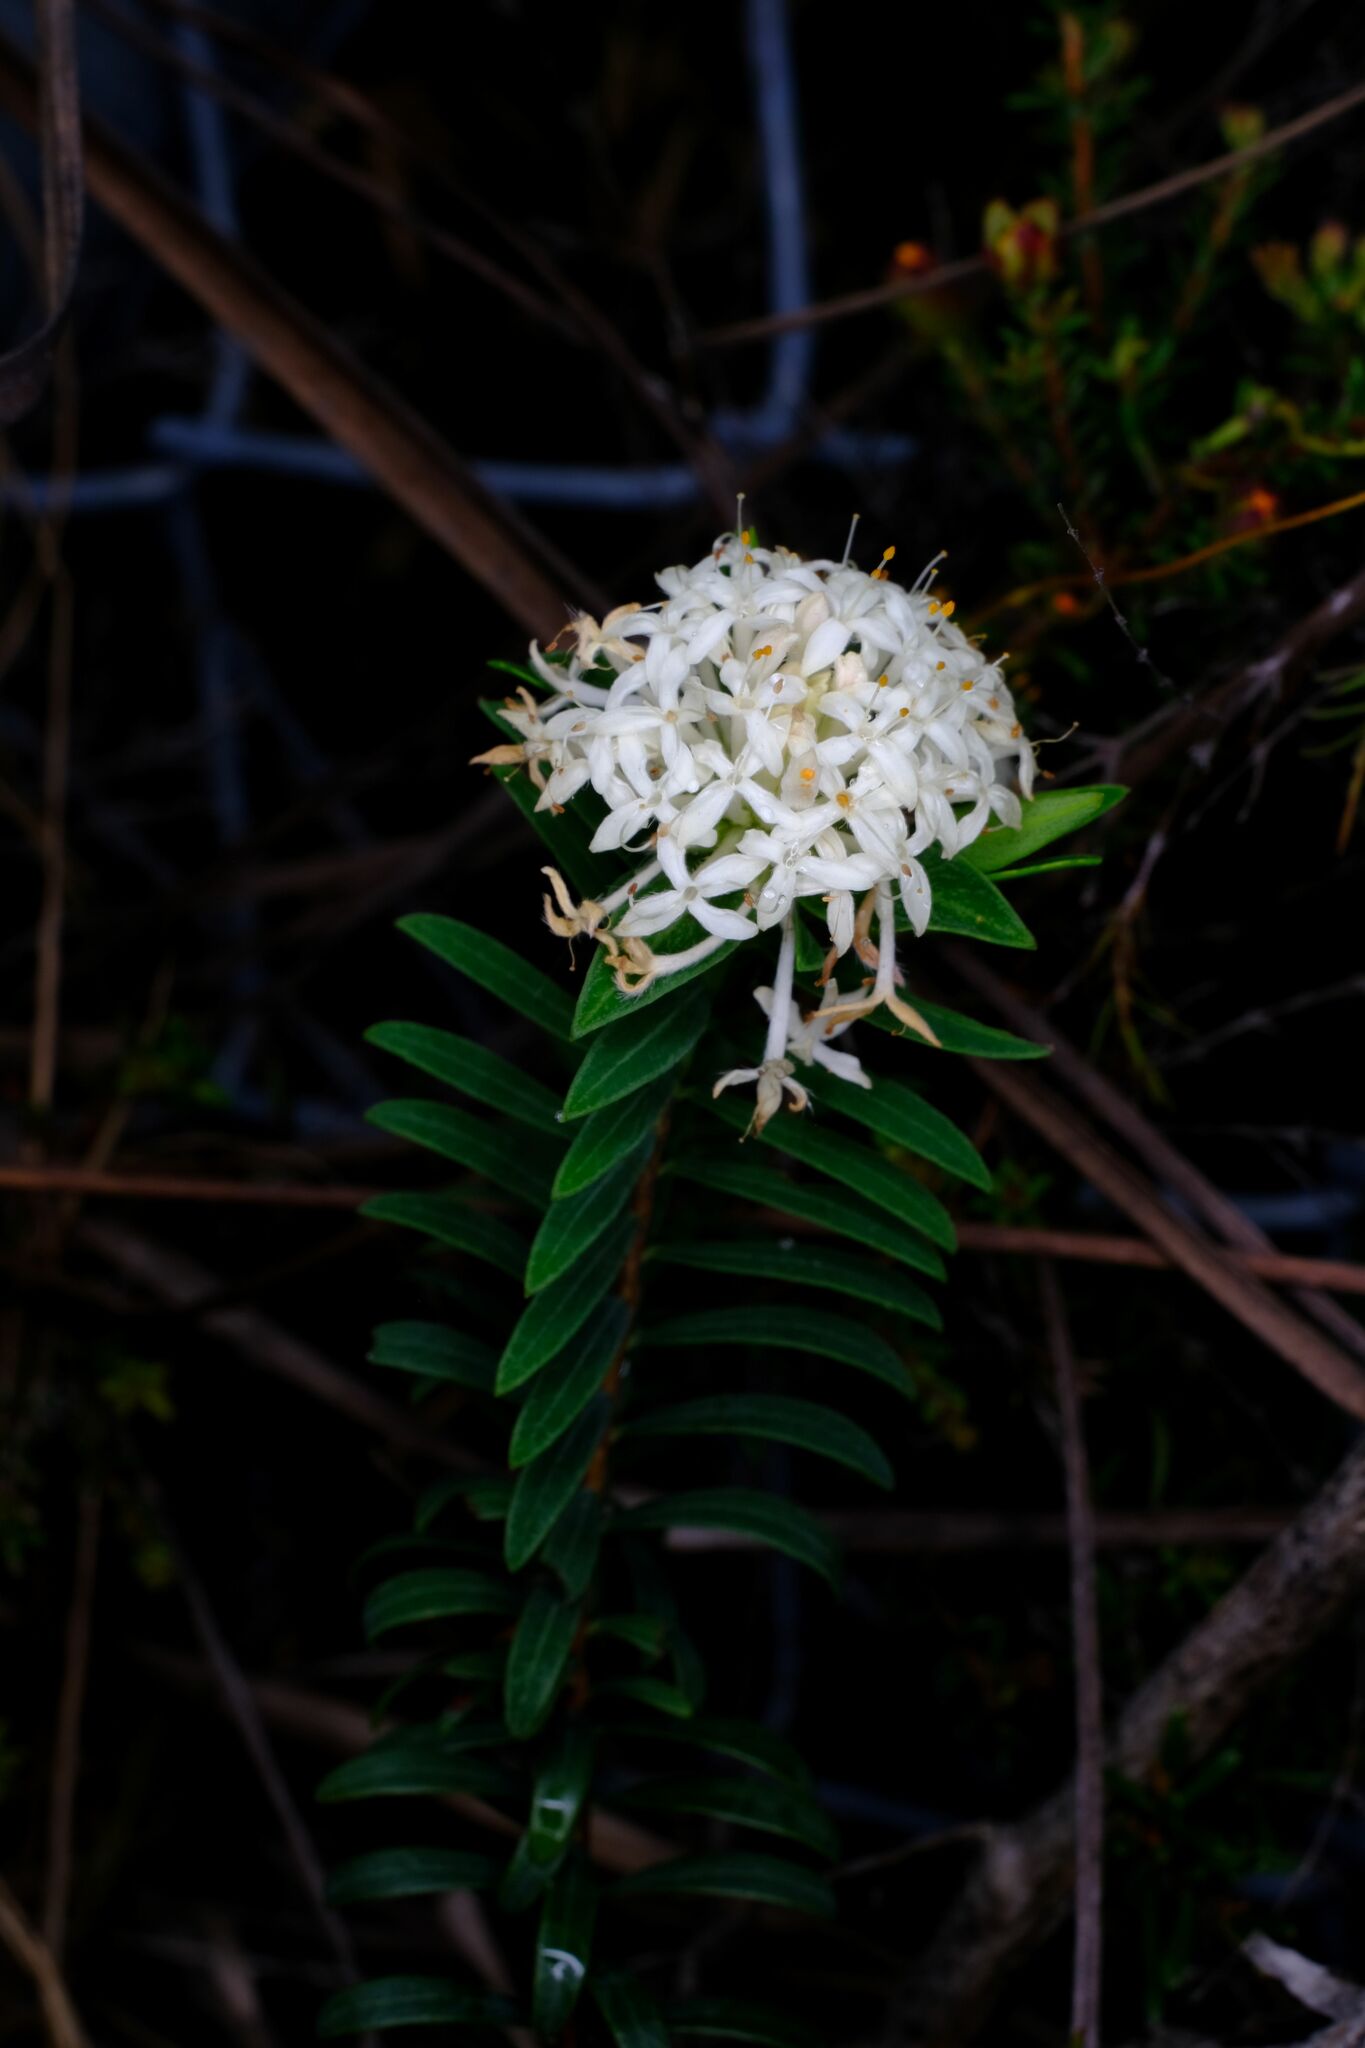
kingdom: Plantae
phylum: Tracheophyta
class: Magnoliopsida
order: Malvales
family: Thymelaeaceae
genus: Pimelea
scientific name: Pimelea linifolia
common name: Queen-of-the-bush
